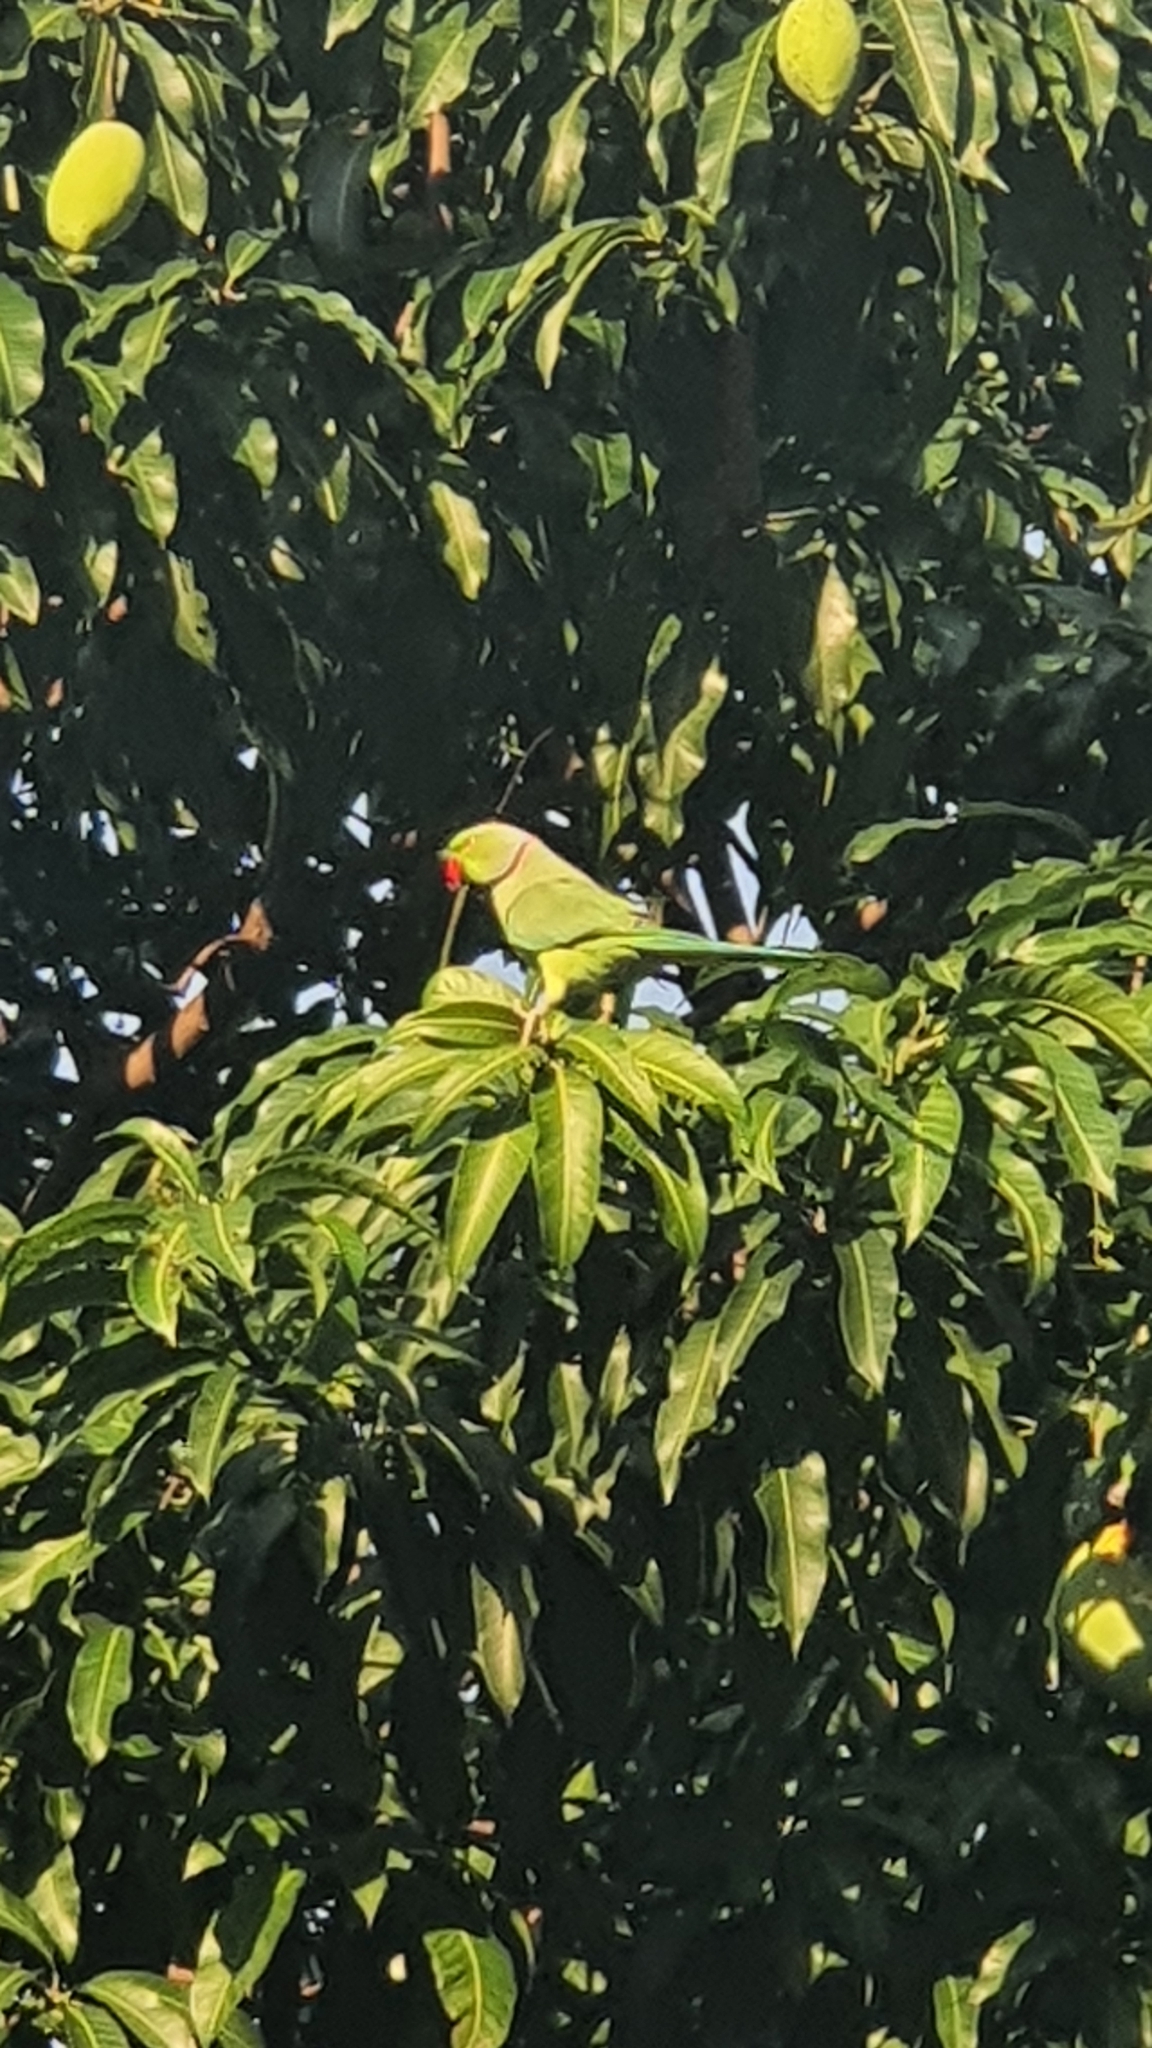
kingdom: Animalia
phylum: Chordata
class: Aves
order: Psittaciformes
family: Psittacidae
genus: Psittacula
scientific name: Psittacula krameri
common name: Rose-ringed parakeet
